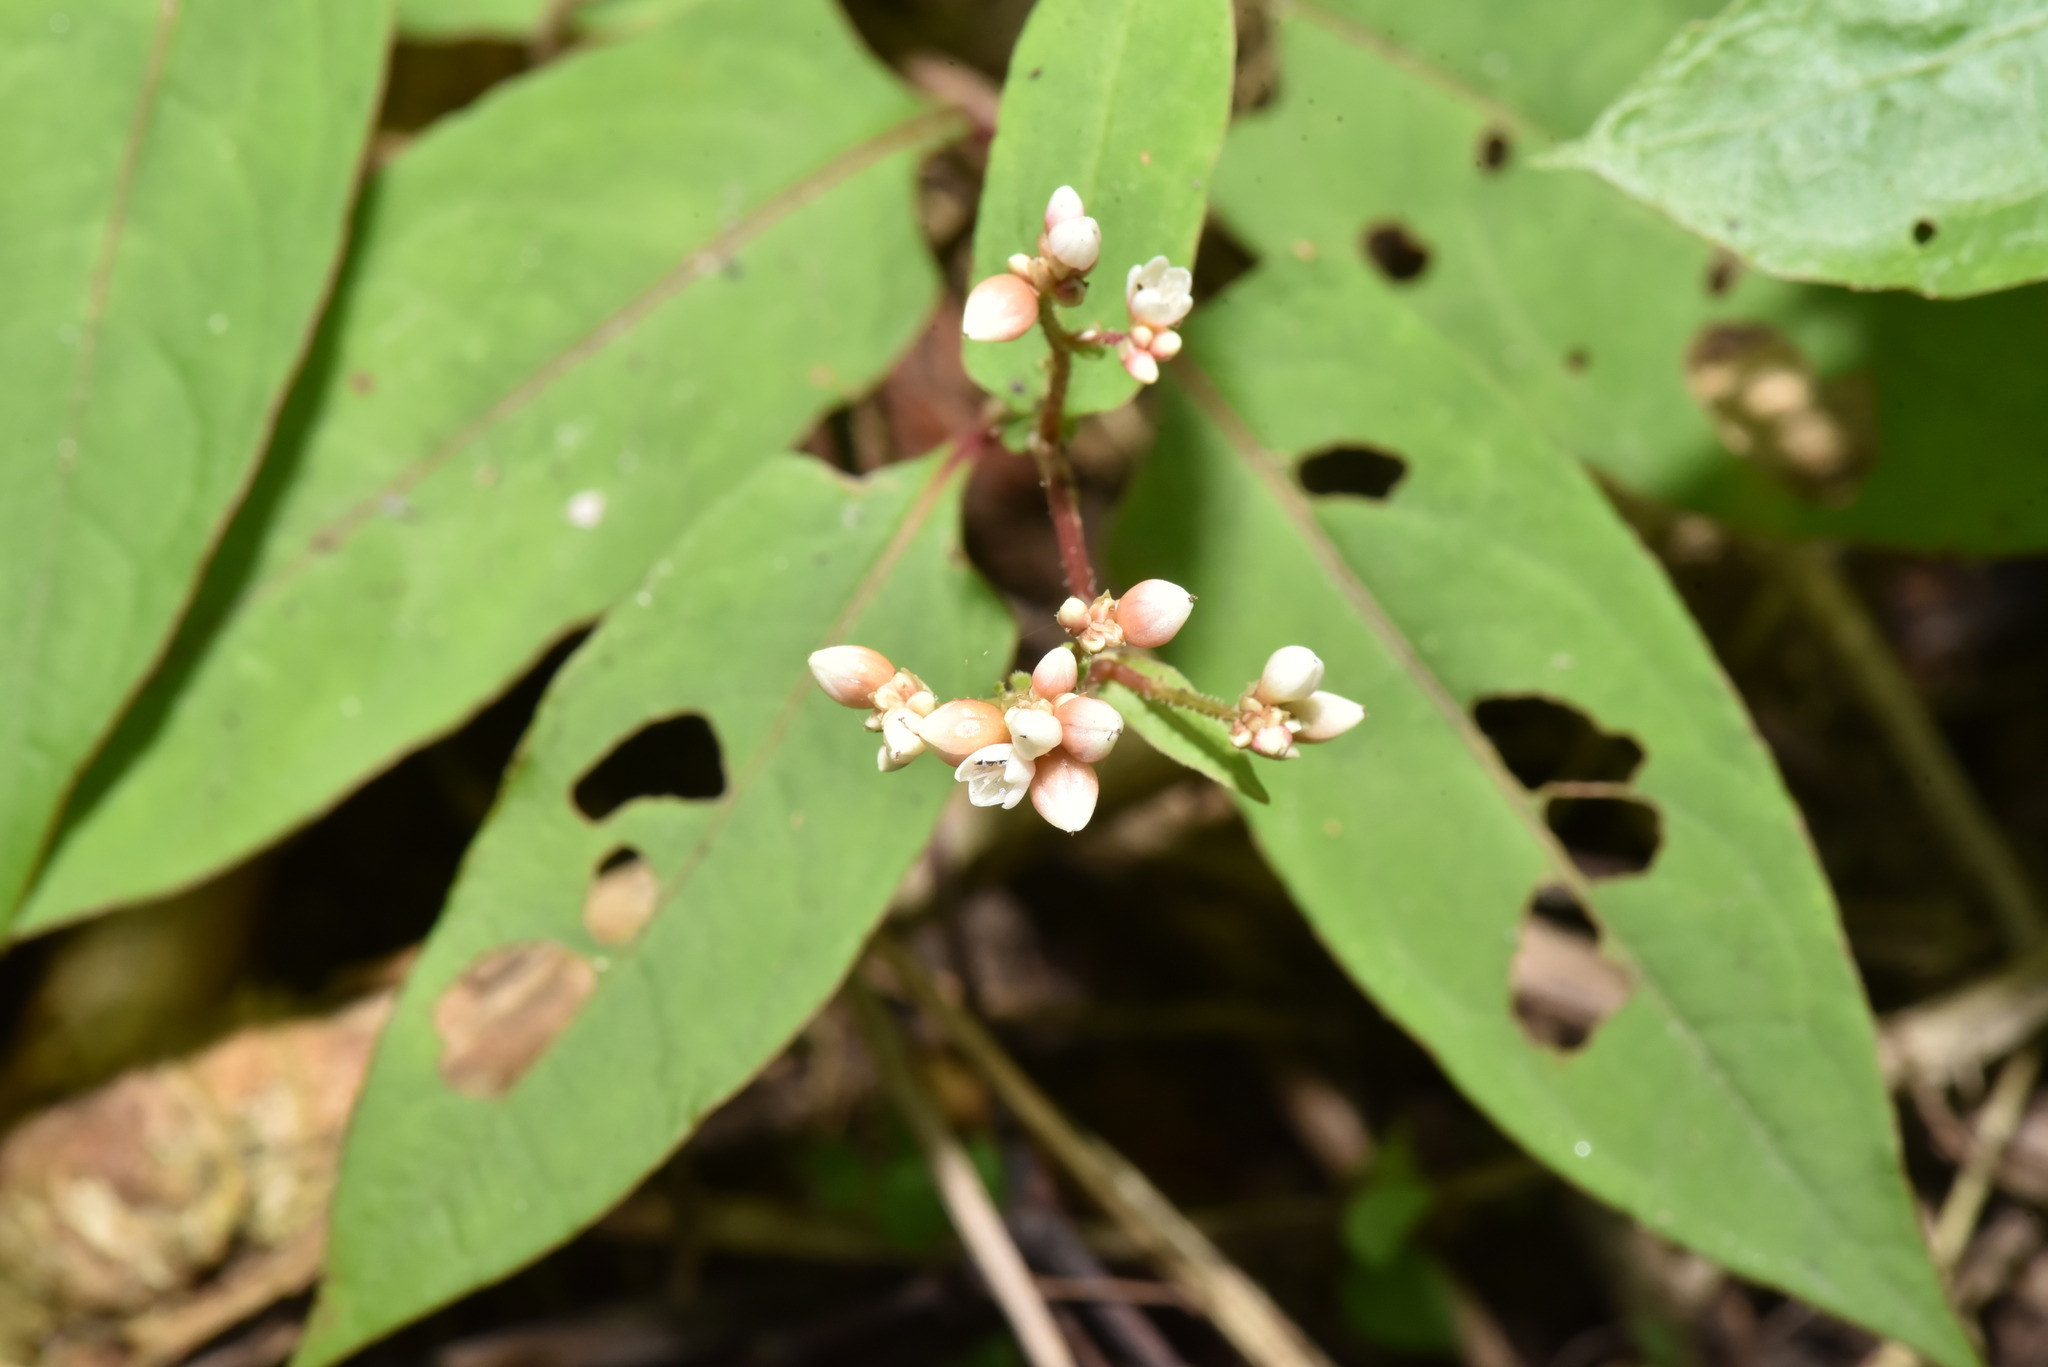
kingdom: Plantae
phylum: Tracheophyta
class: Magnoliopsida
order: Caryophyllales
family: Polygonaceae
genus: Persicaria
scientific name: Persicaria chinensis
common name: Chinese knotweed
